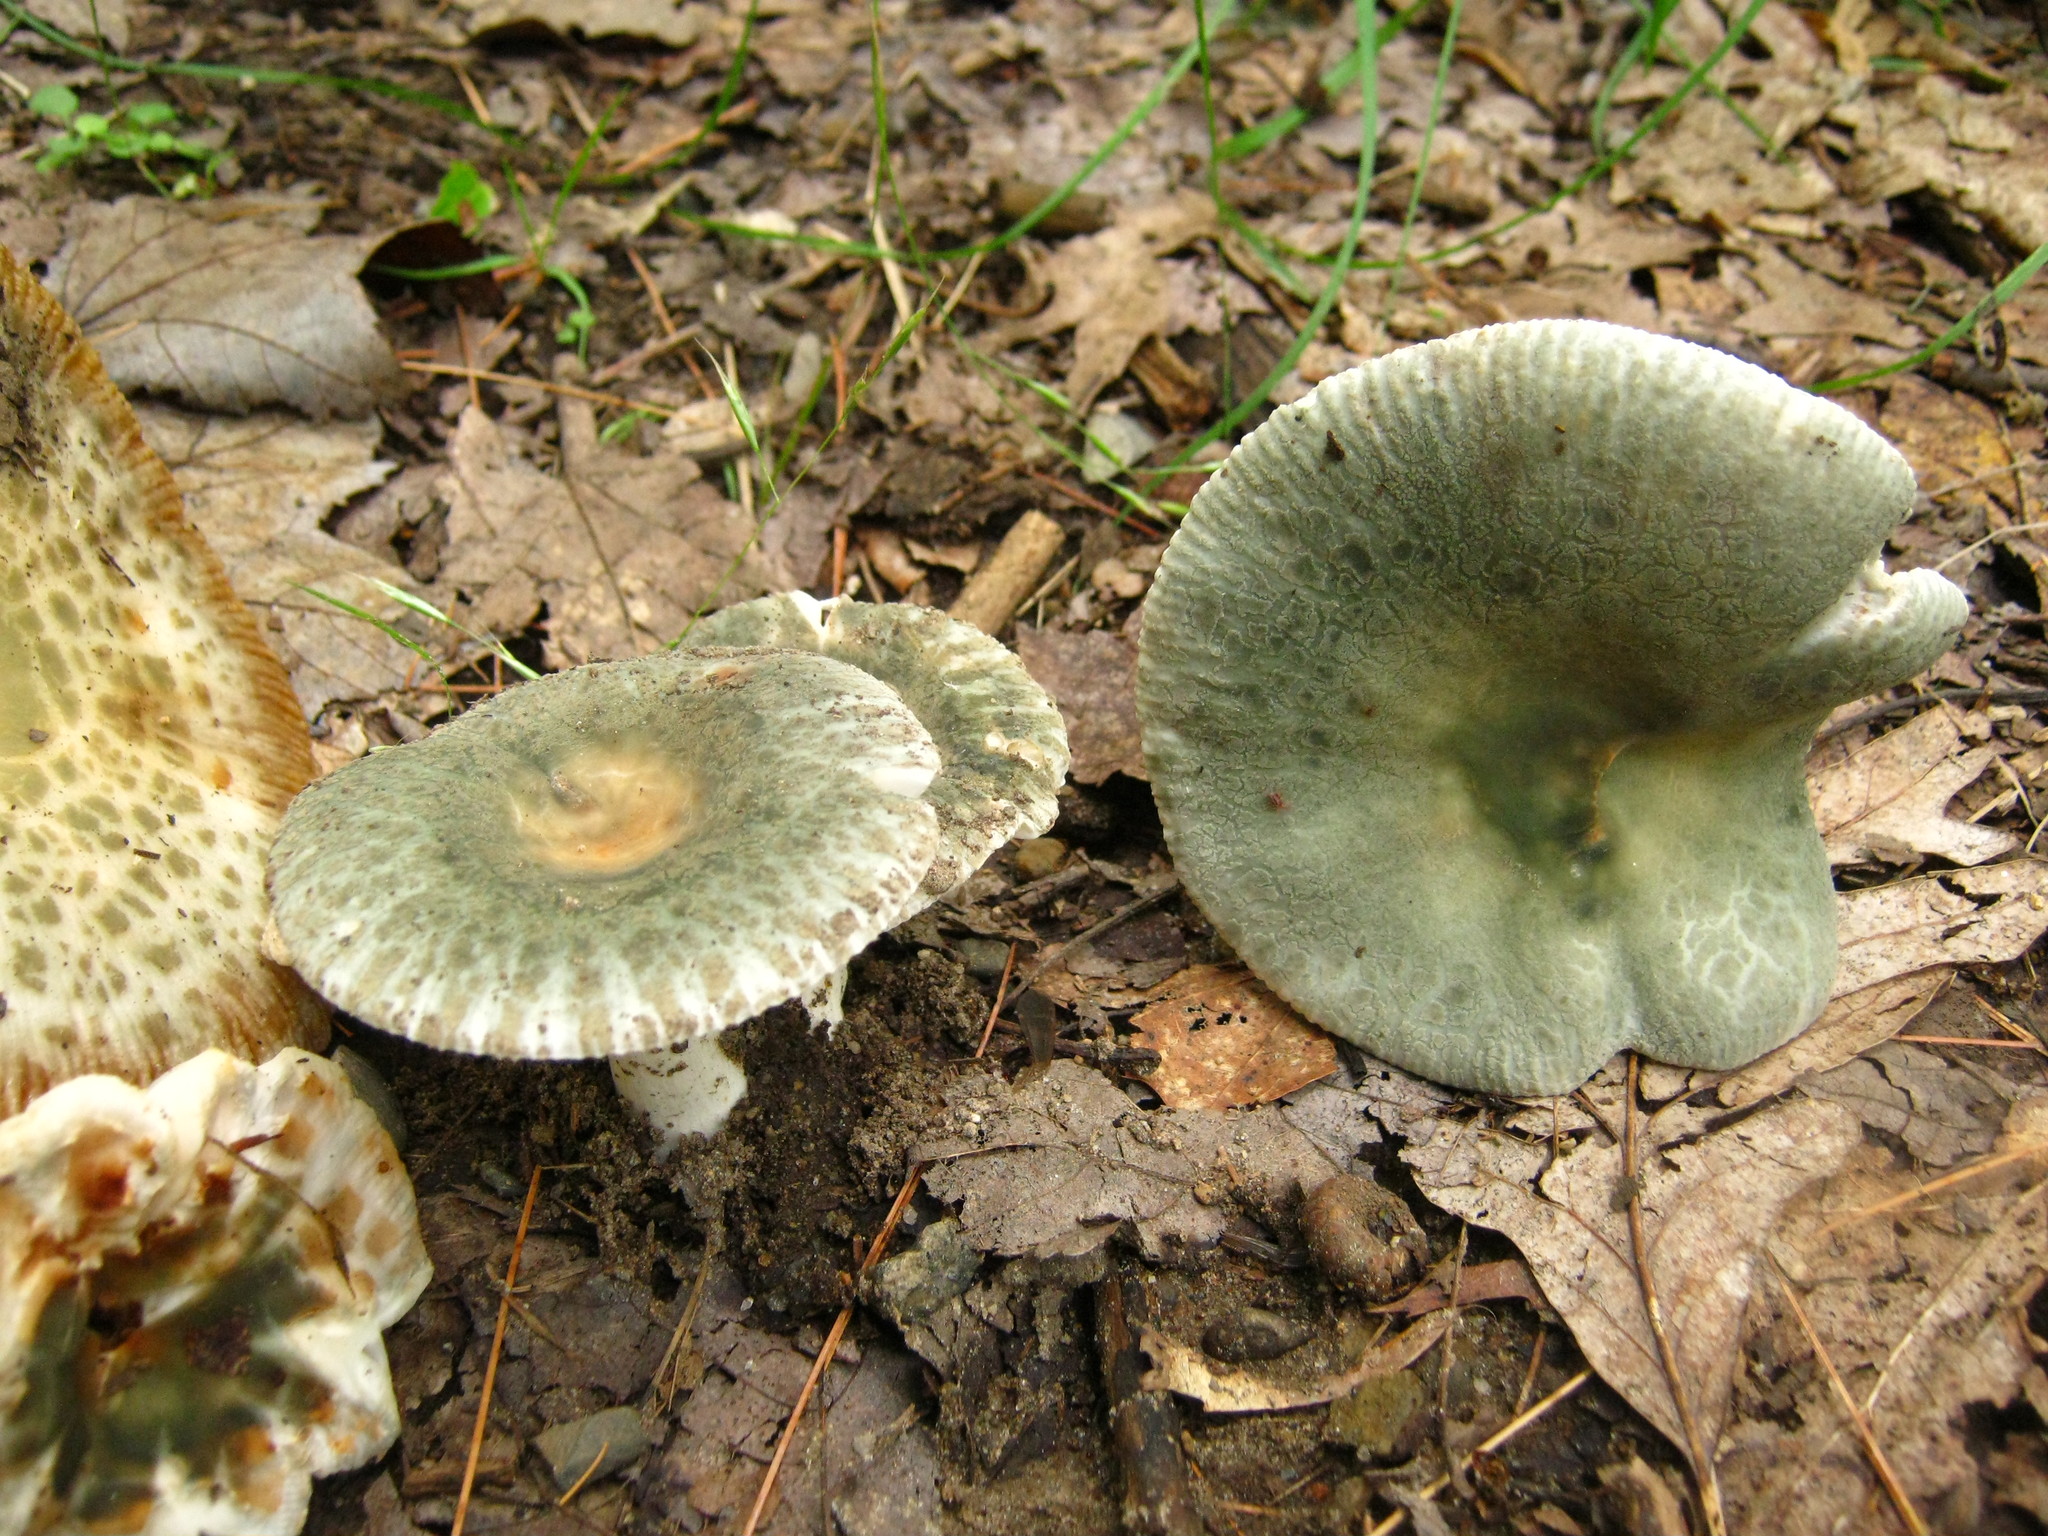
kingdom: Fungi
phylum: Basidiomycota
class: Agaricomycetes
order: Russulales
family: Russulaceae
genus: Russula
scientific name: Russula parvovirescens
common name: Blue-green cracking russula
